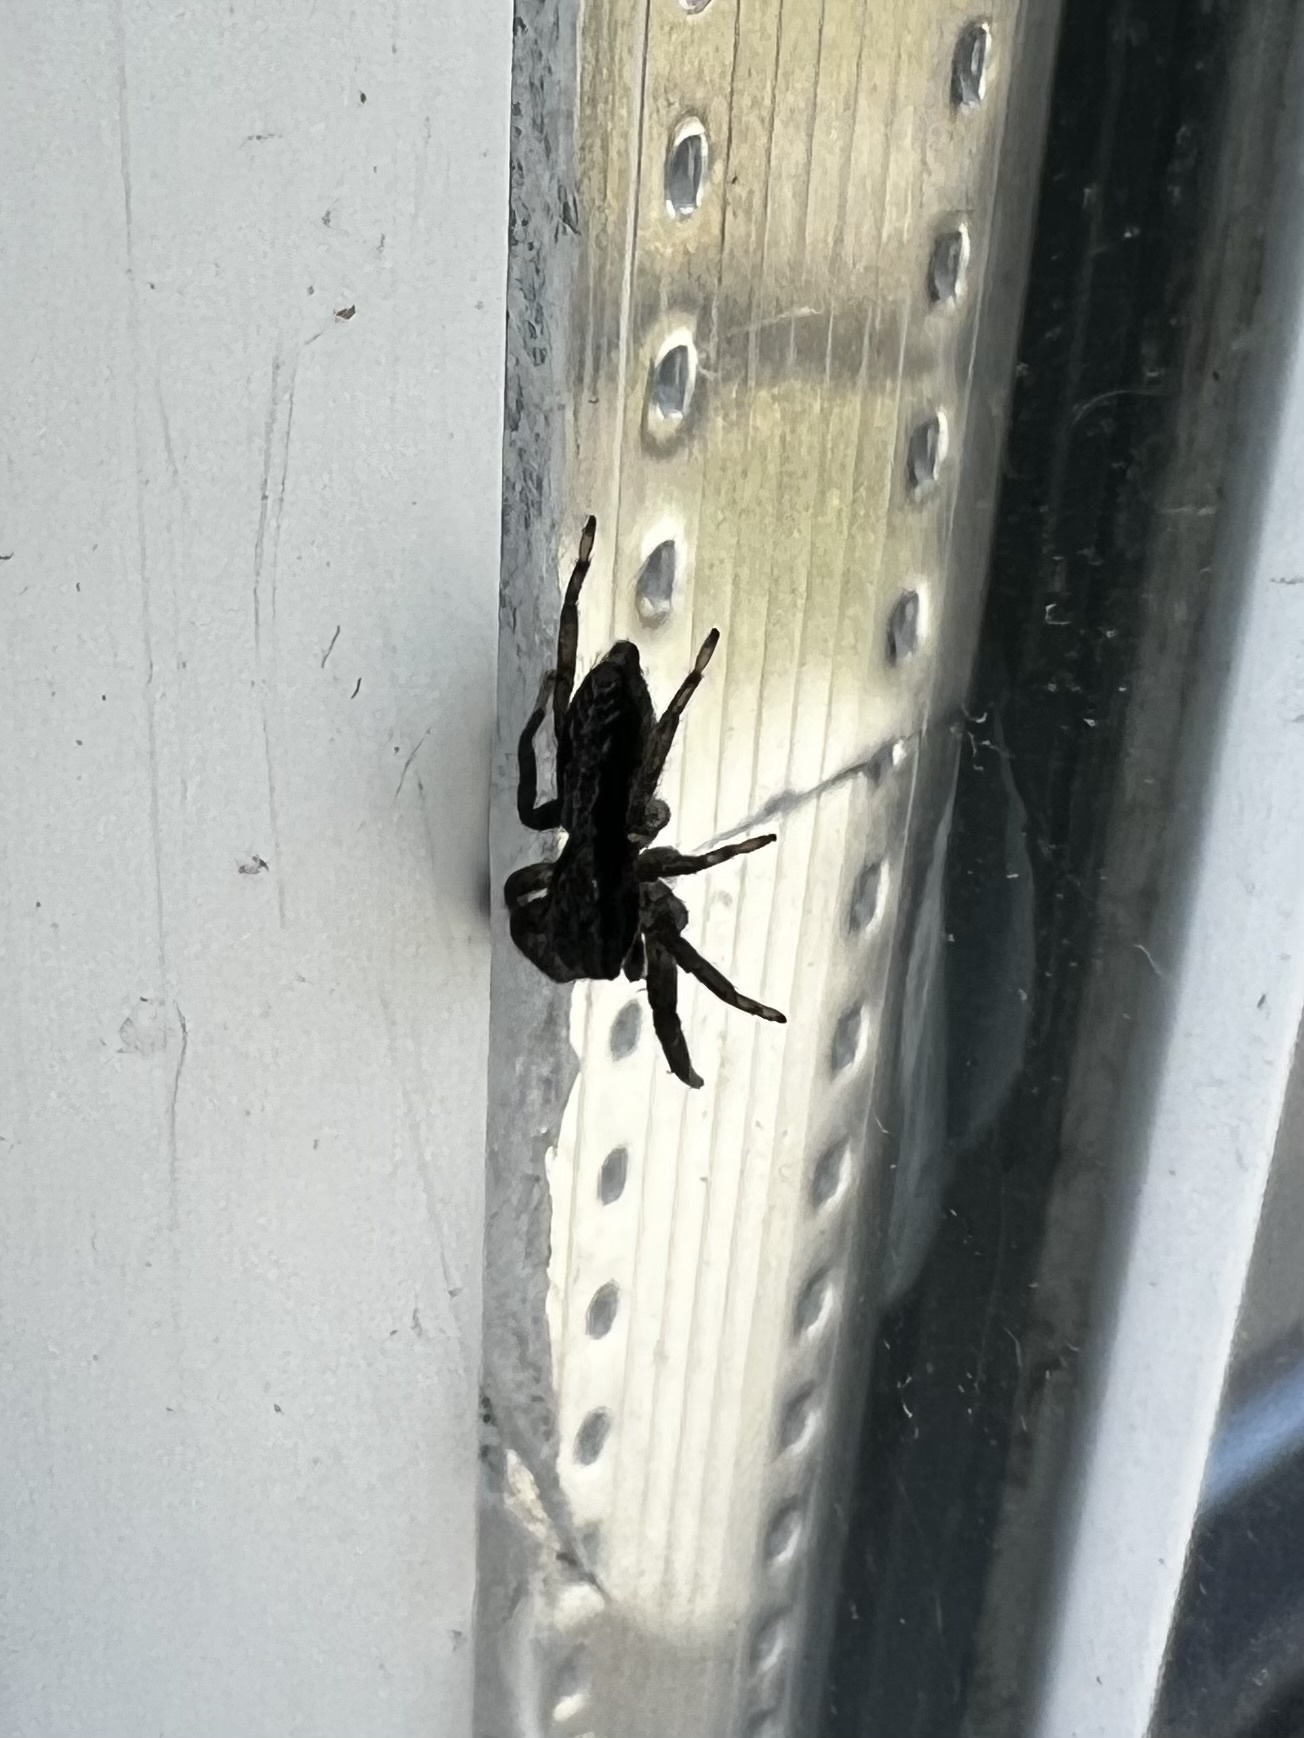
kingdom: Animalia
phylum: Arthropoda
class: Arachnida
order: Araneae
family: Salticidae
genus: Platycryptus
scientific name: Platycryptus californicus
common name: Jumping spiders
